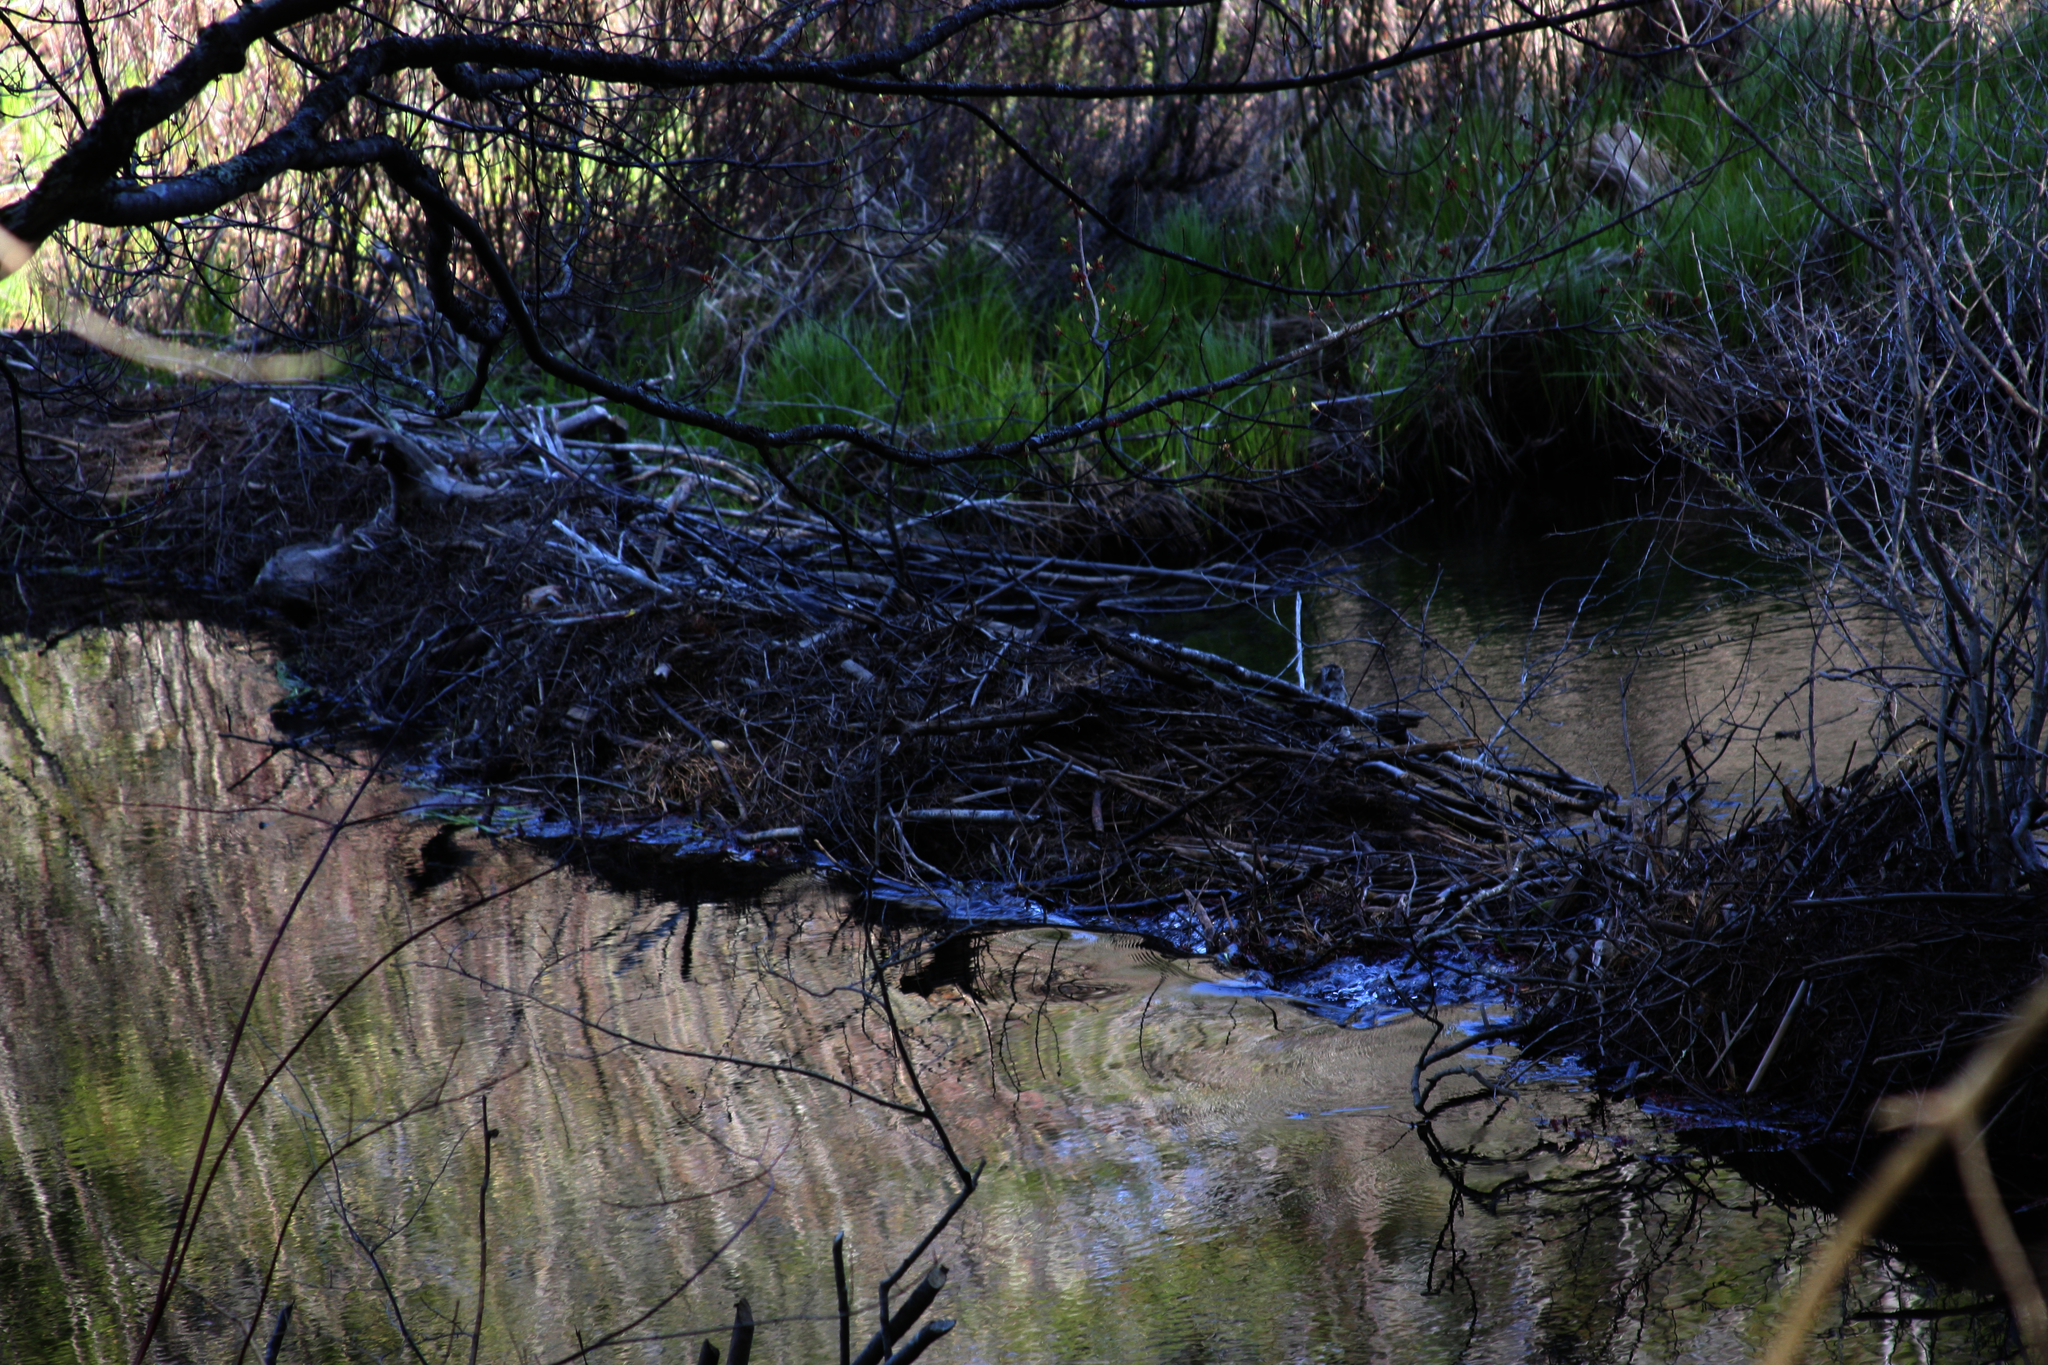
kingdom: Animalia
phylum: Chordata
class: Mammalia
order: Rodentia
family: Castoridae
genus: Castor
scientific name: Castor canadensis
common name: American beaver
